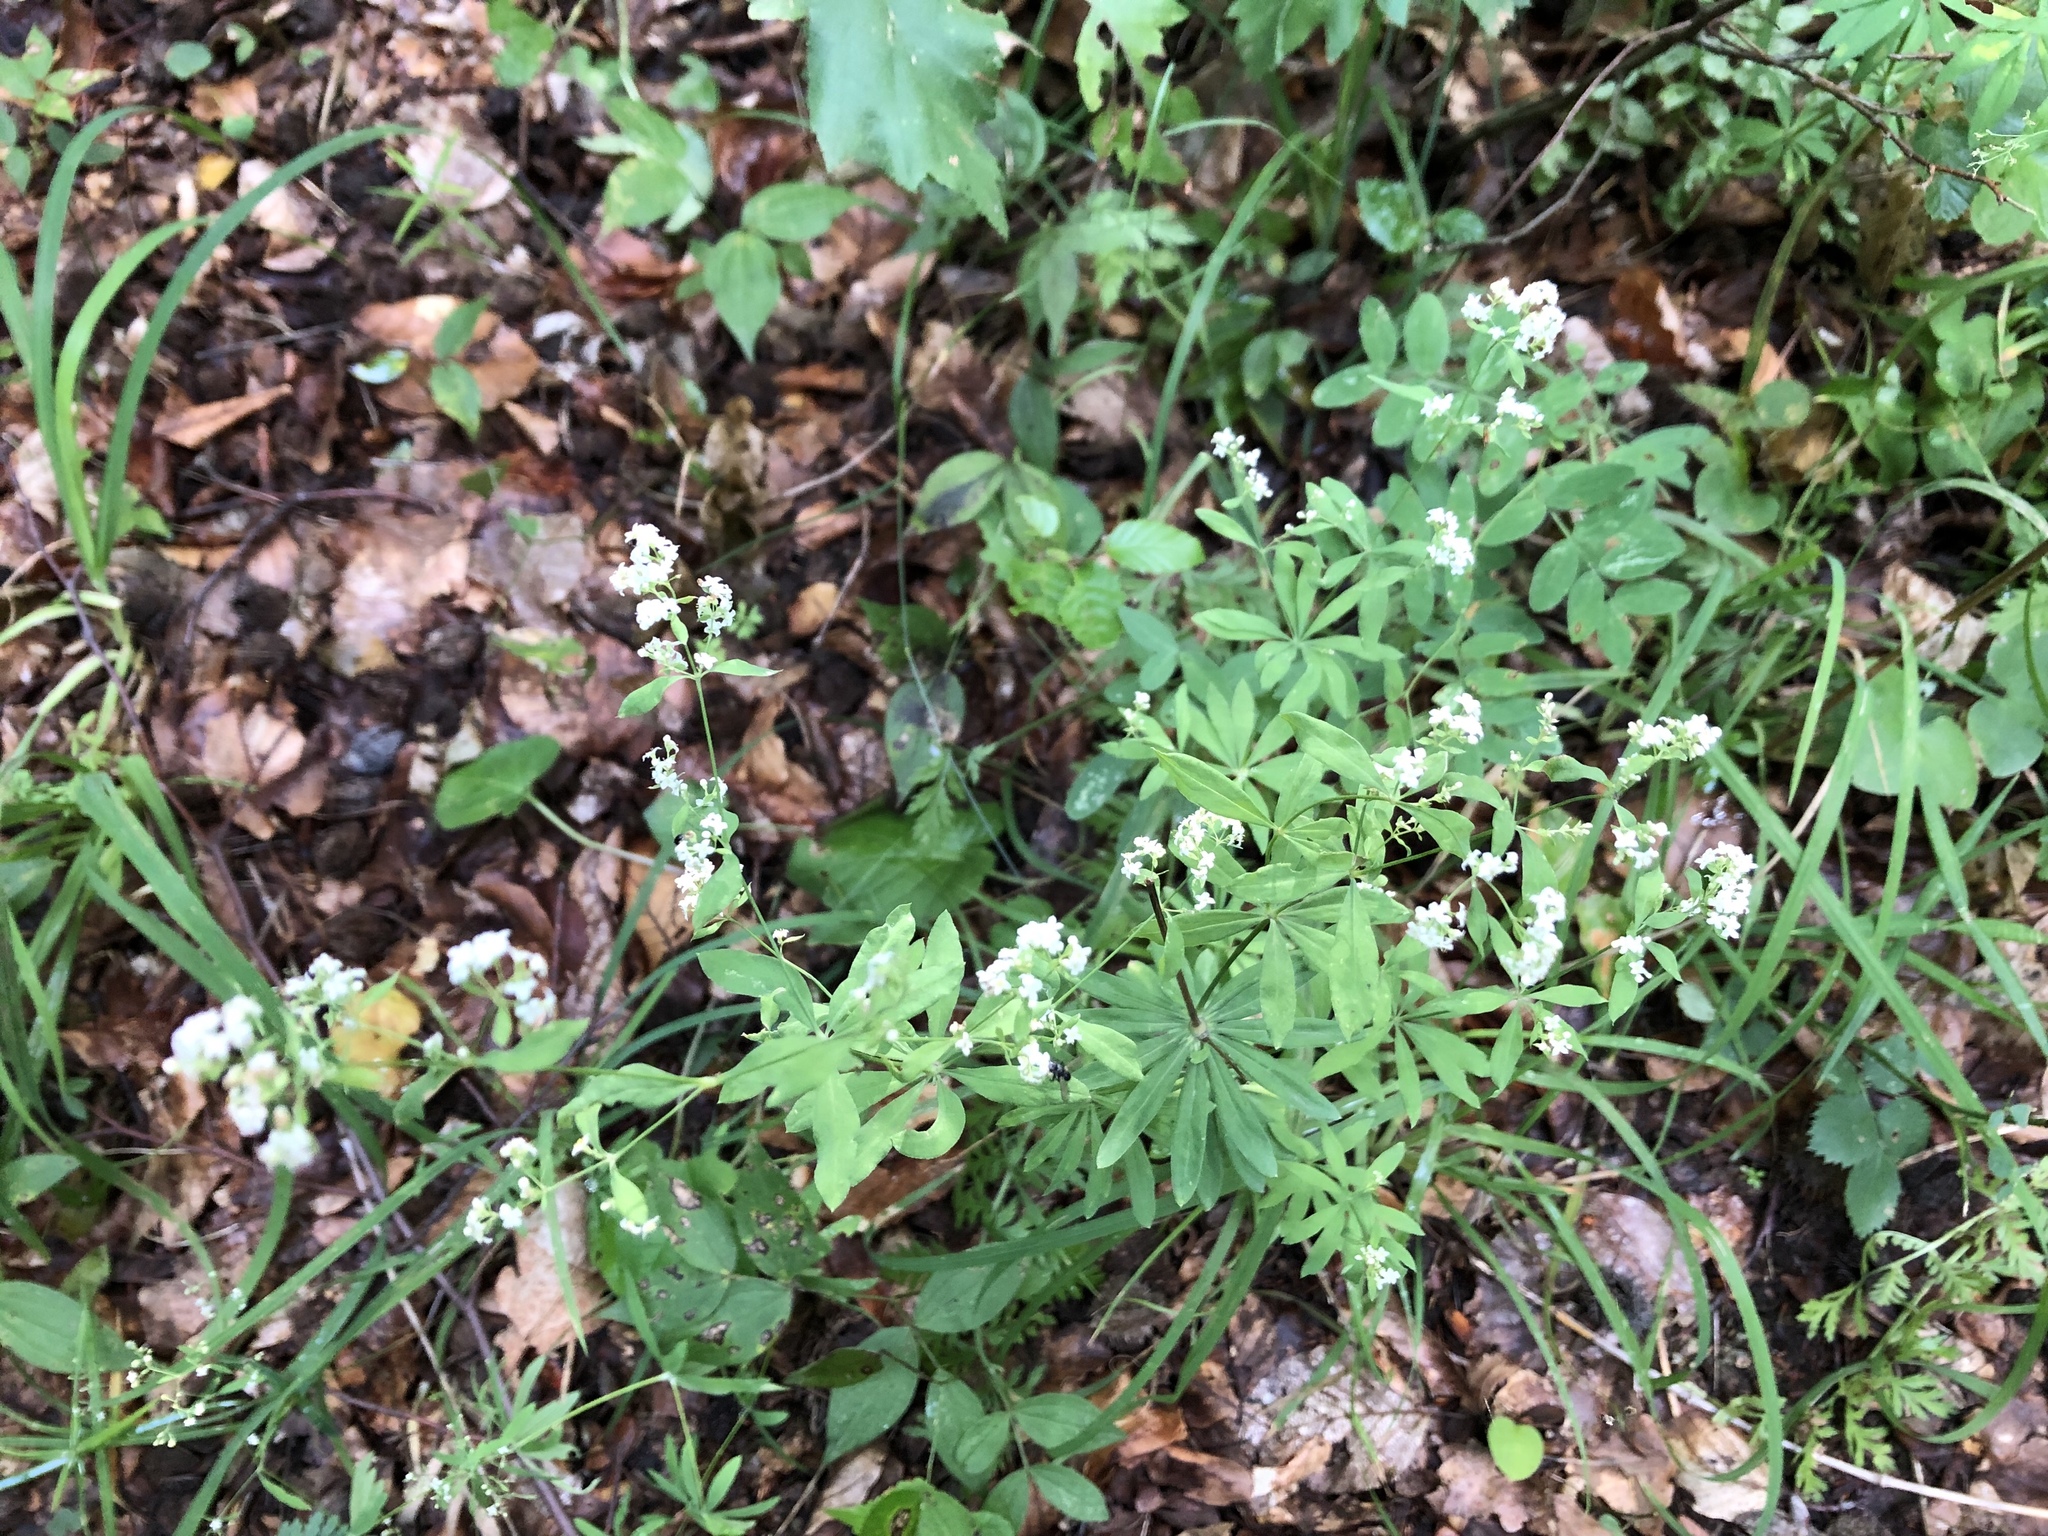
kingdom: Plantae
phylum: Tracheophyta
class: Magnoliopsida
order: Gentianales
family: Rubiaceae
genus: Galium
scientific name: Galium sylvaticum
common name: Wood bedstraw
